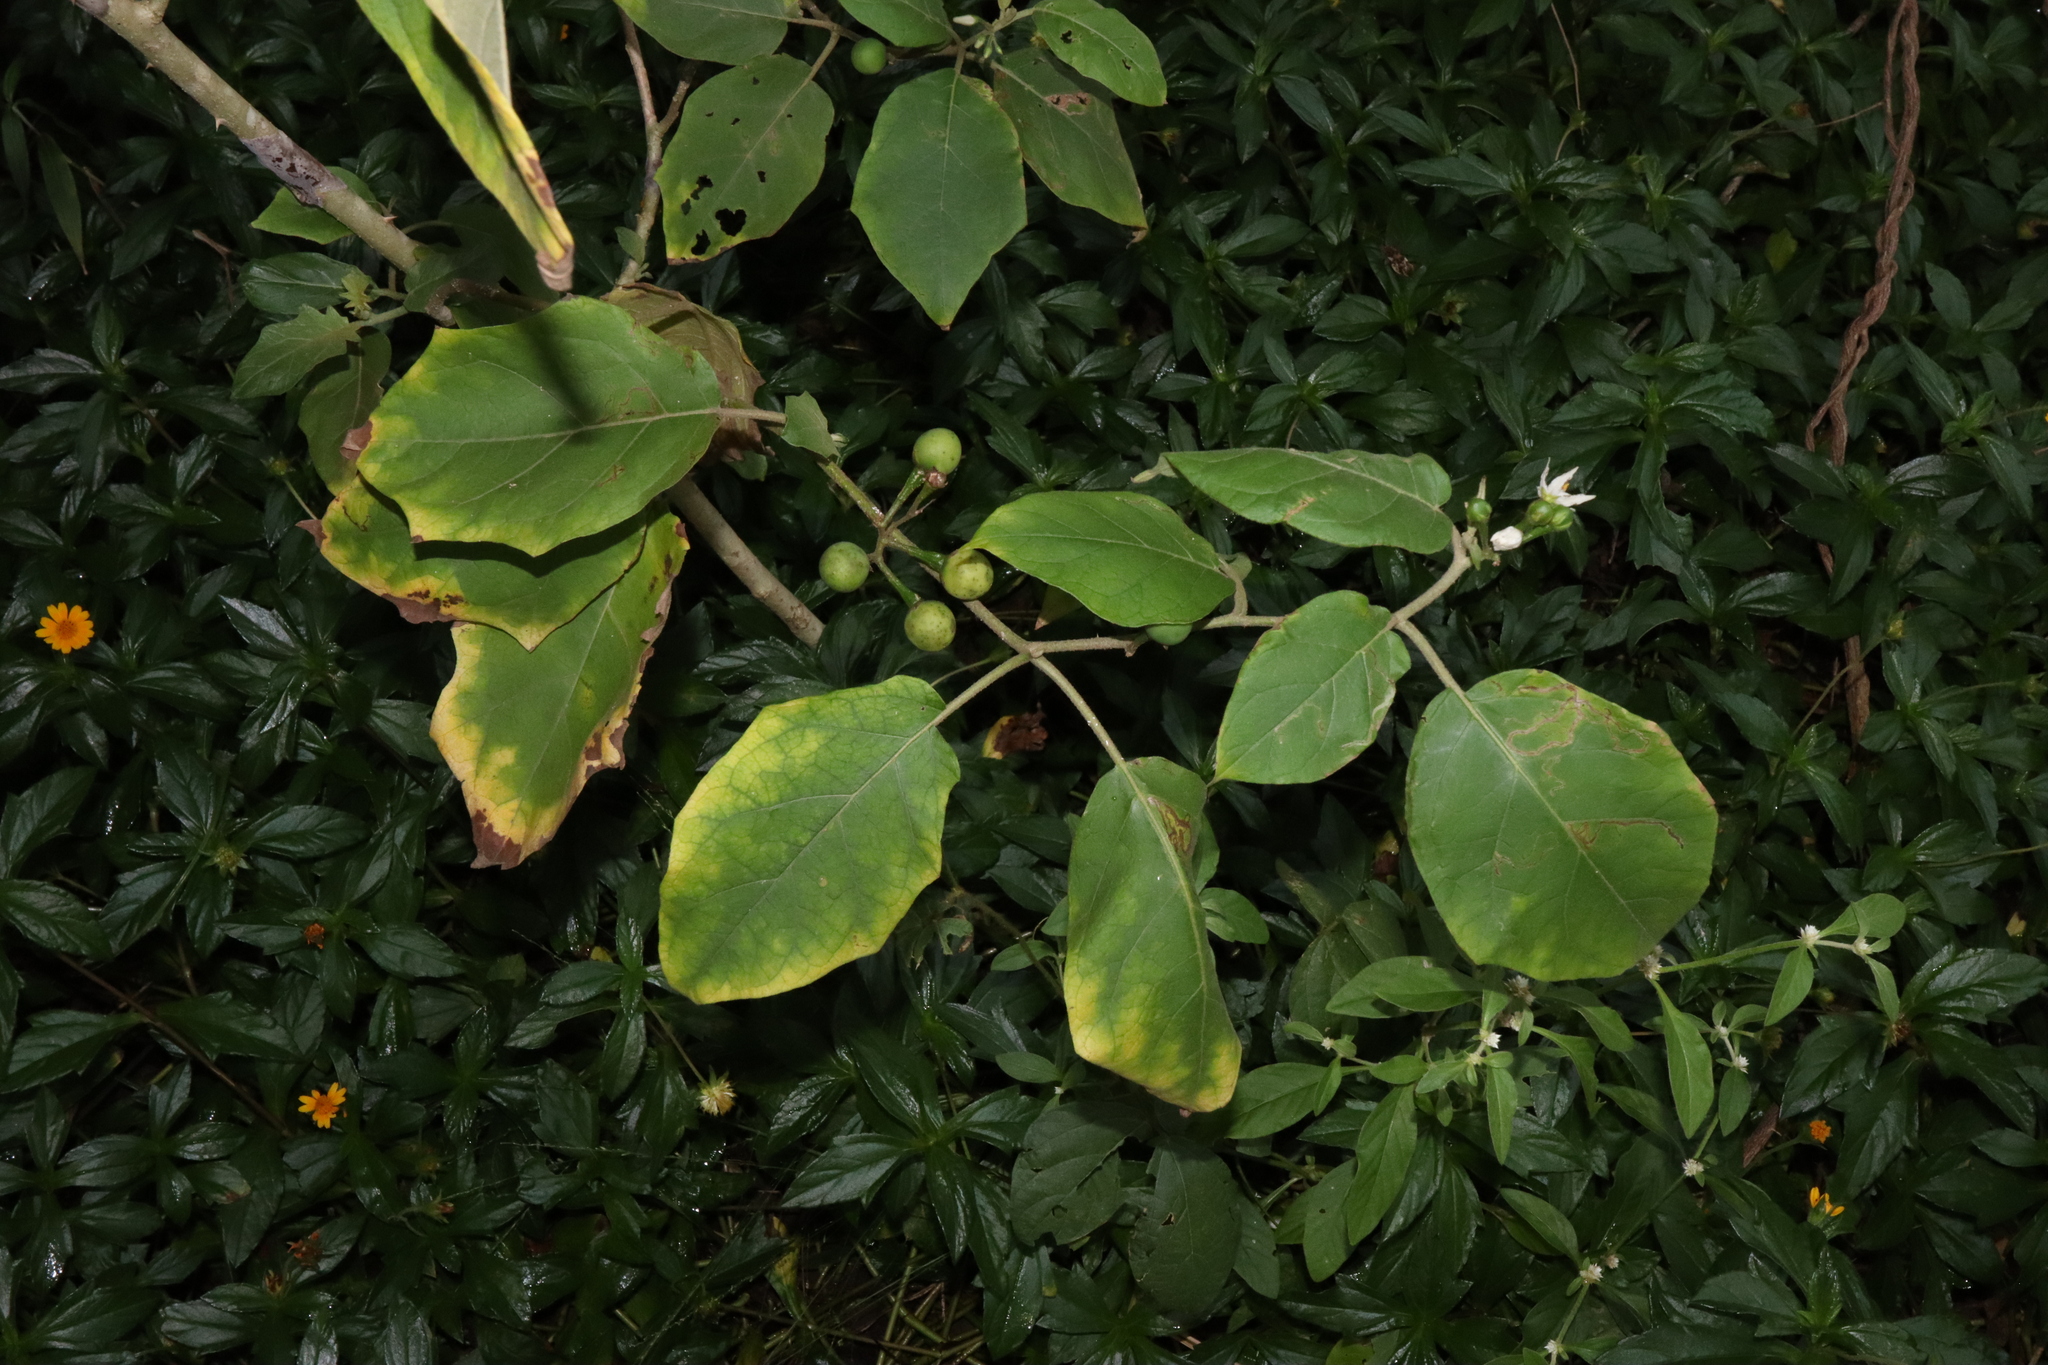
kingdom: Plantae
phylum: Tracheophyta
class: Magnoliopsida
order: Solanales
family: Solanaceae
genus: Solanum
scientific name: Solanum torvum
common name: Turkey berry
